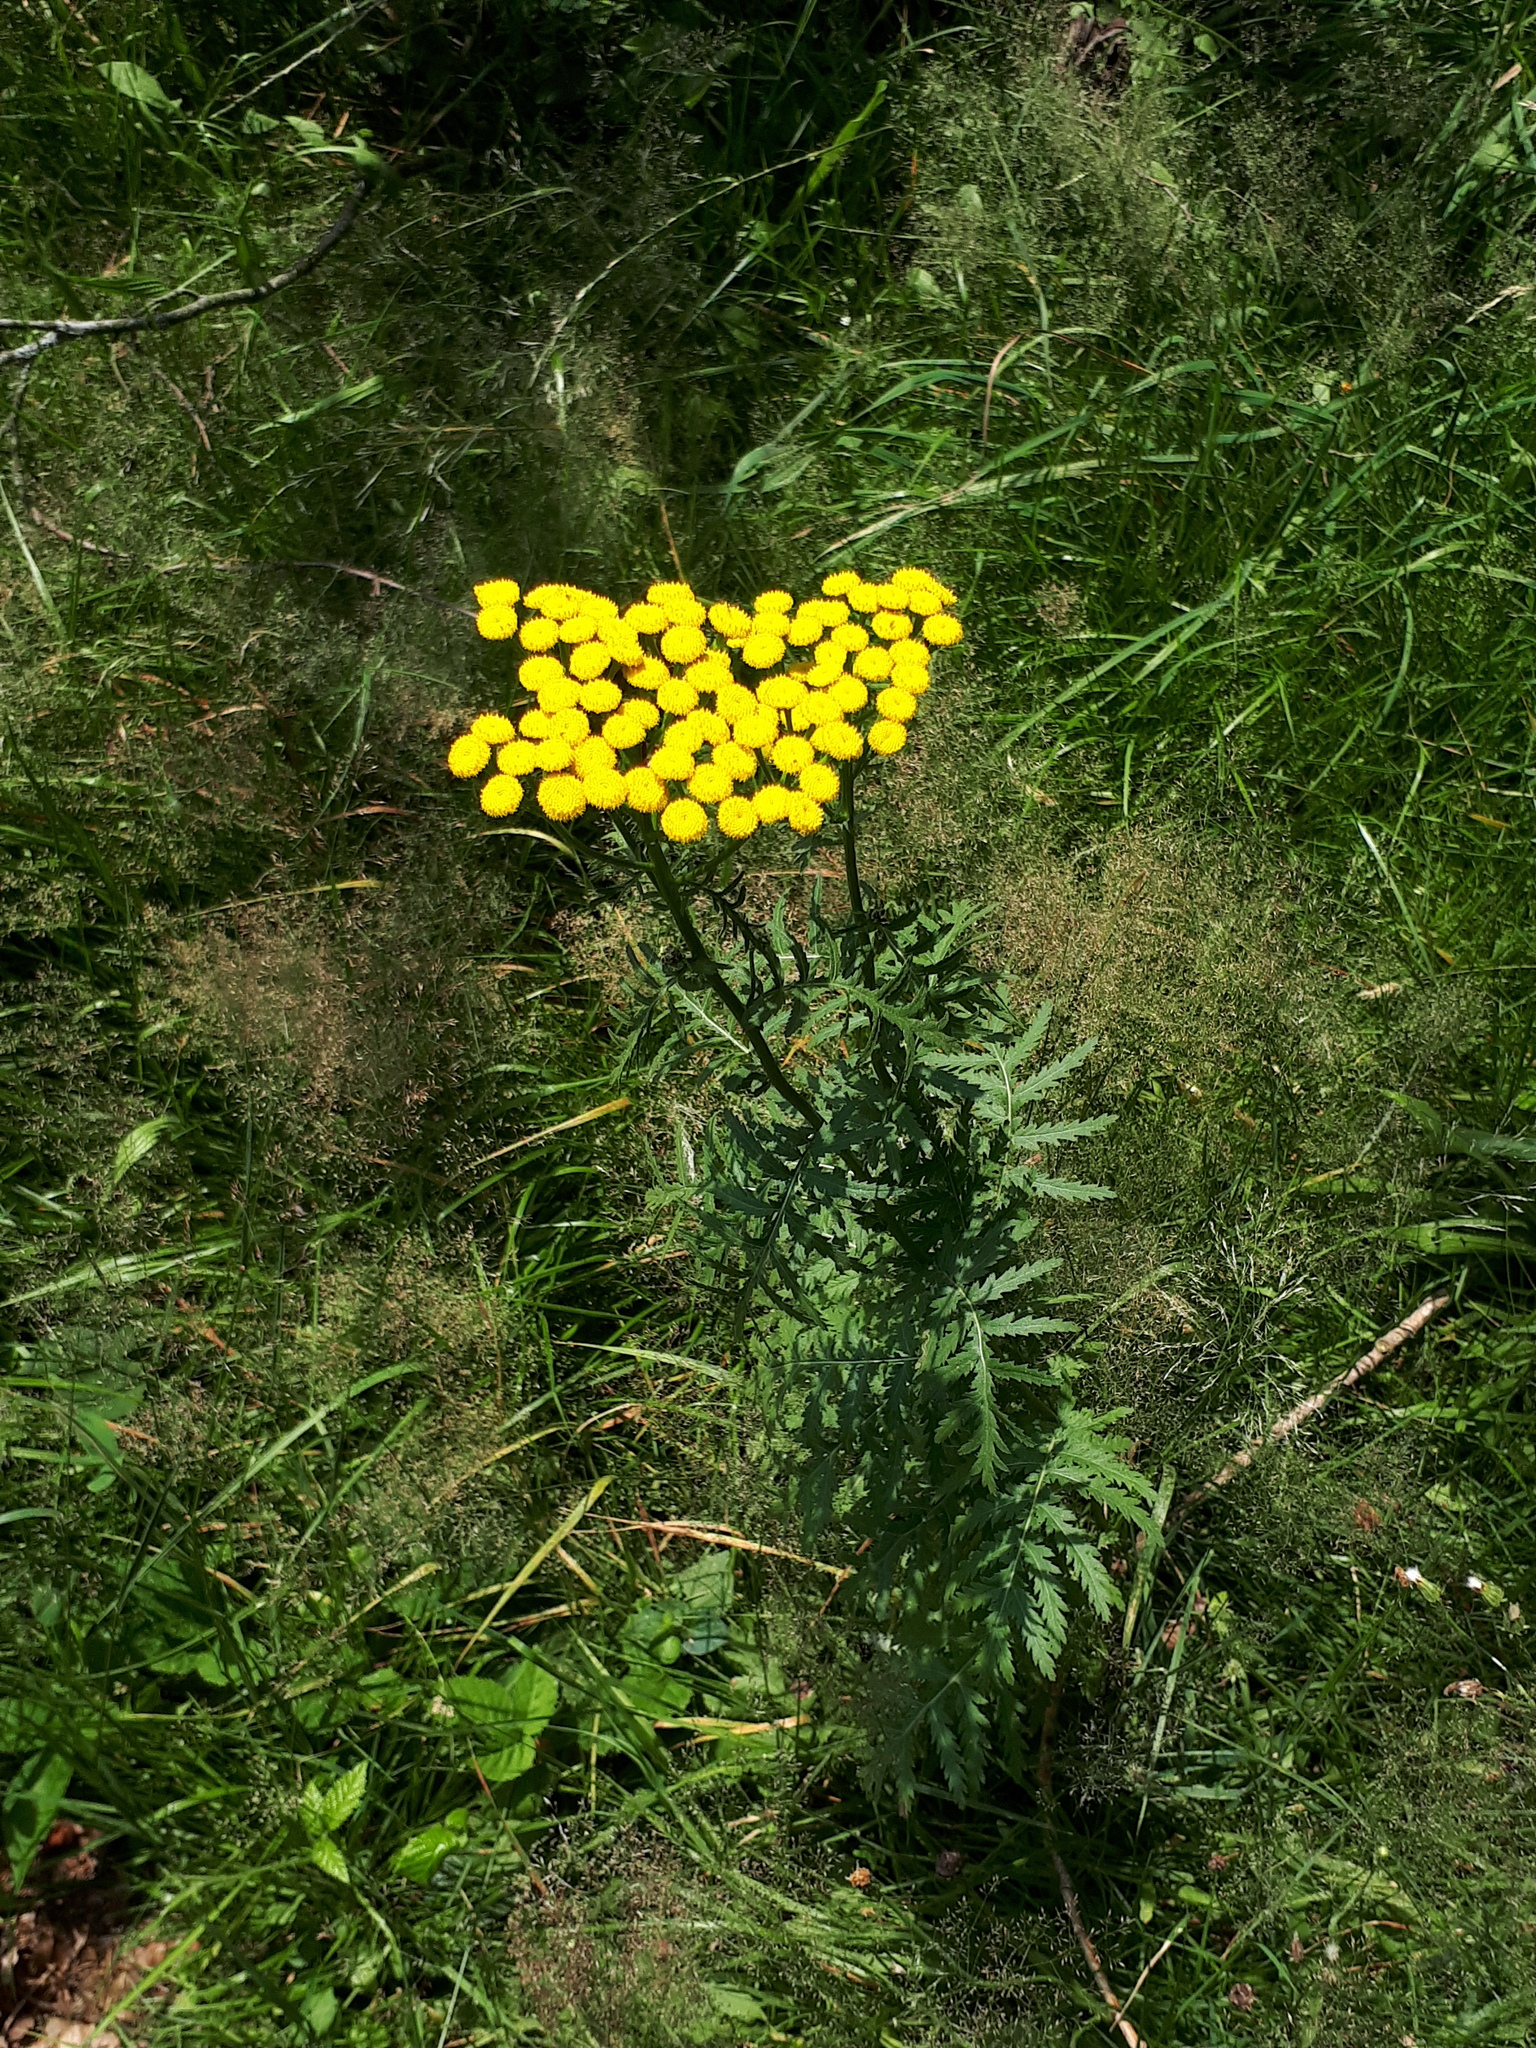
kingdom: Plantae
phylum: Tracheophyta
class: Magnoliopsida
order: Asterales
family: Asteraceae
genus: Tanacetum
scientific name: Tanacetum vulgare
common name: Common tansy
